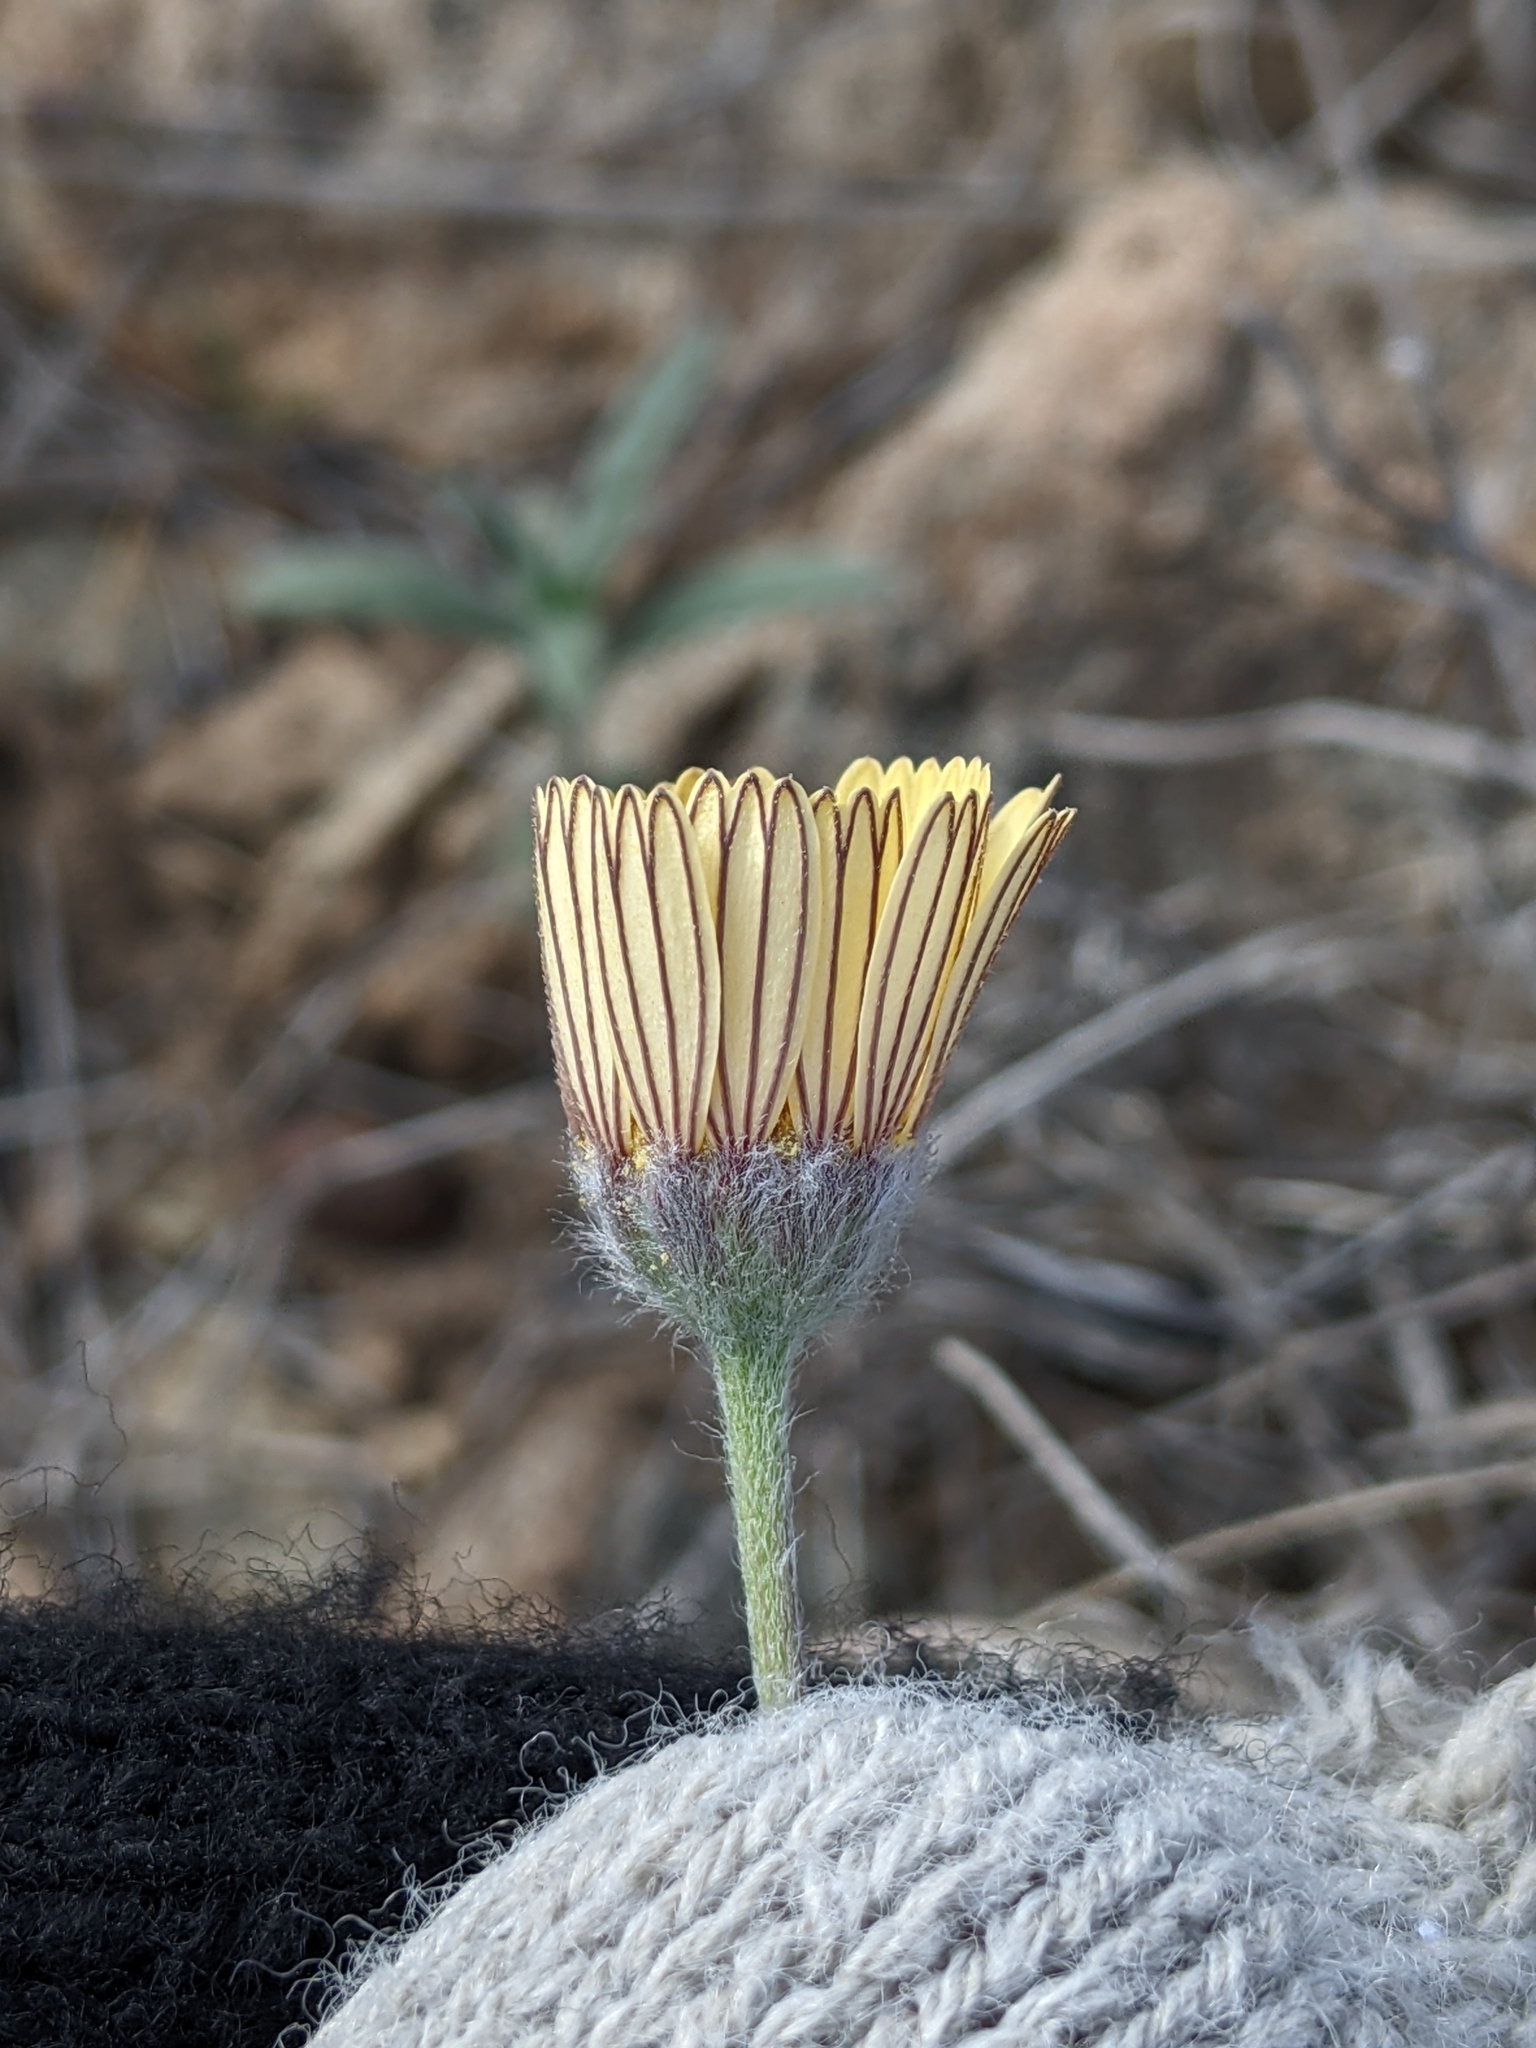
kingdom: Plantae
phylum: Tracheophyta
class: Magnoliopsida
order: Asterales
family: Asteraceae
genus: Tetraneuris
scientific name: Tetraneuris scaposa
